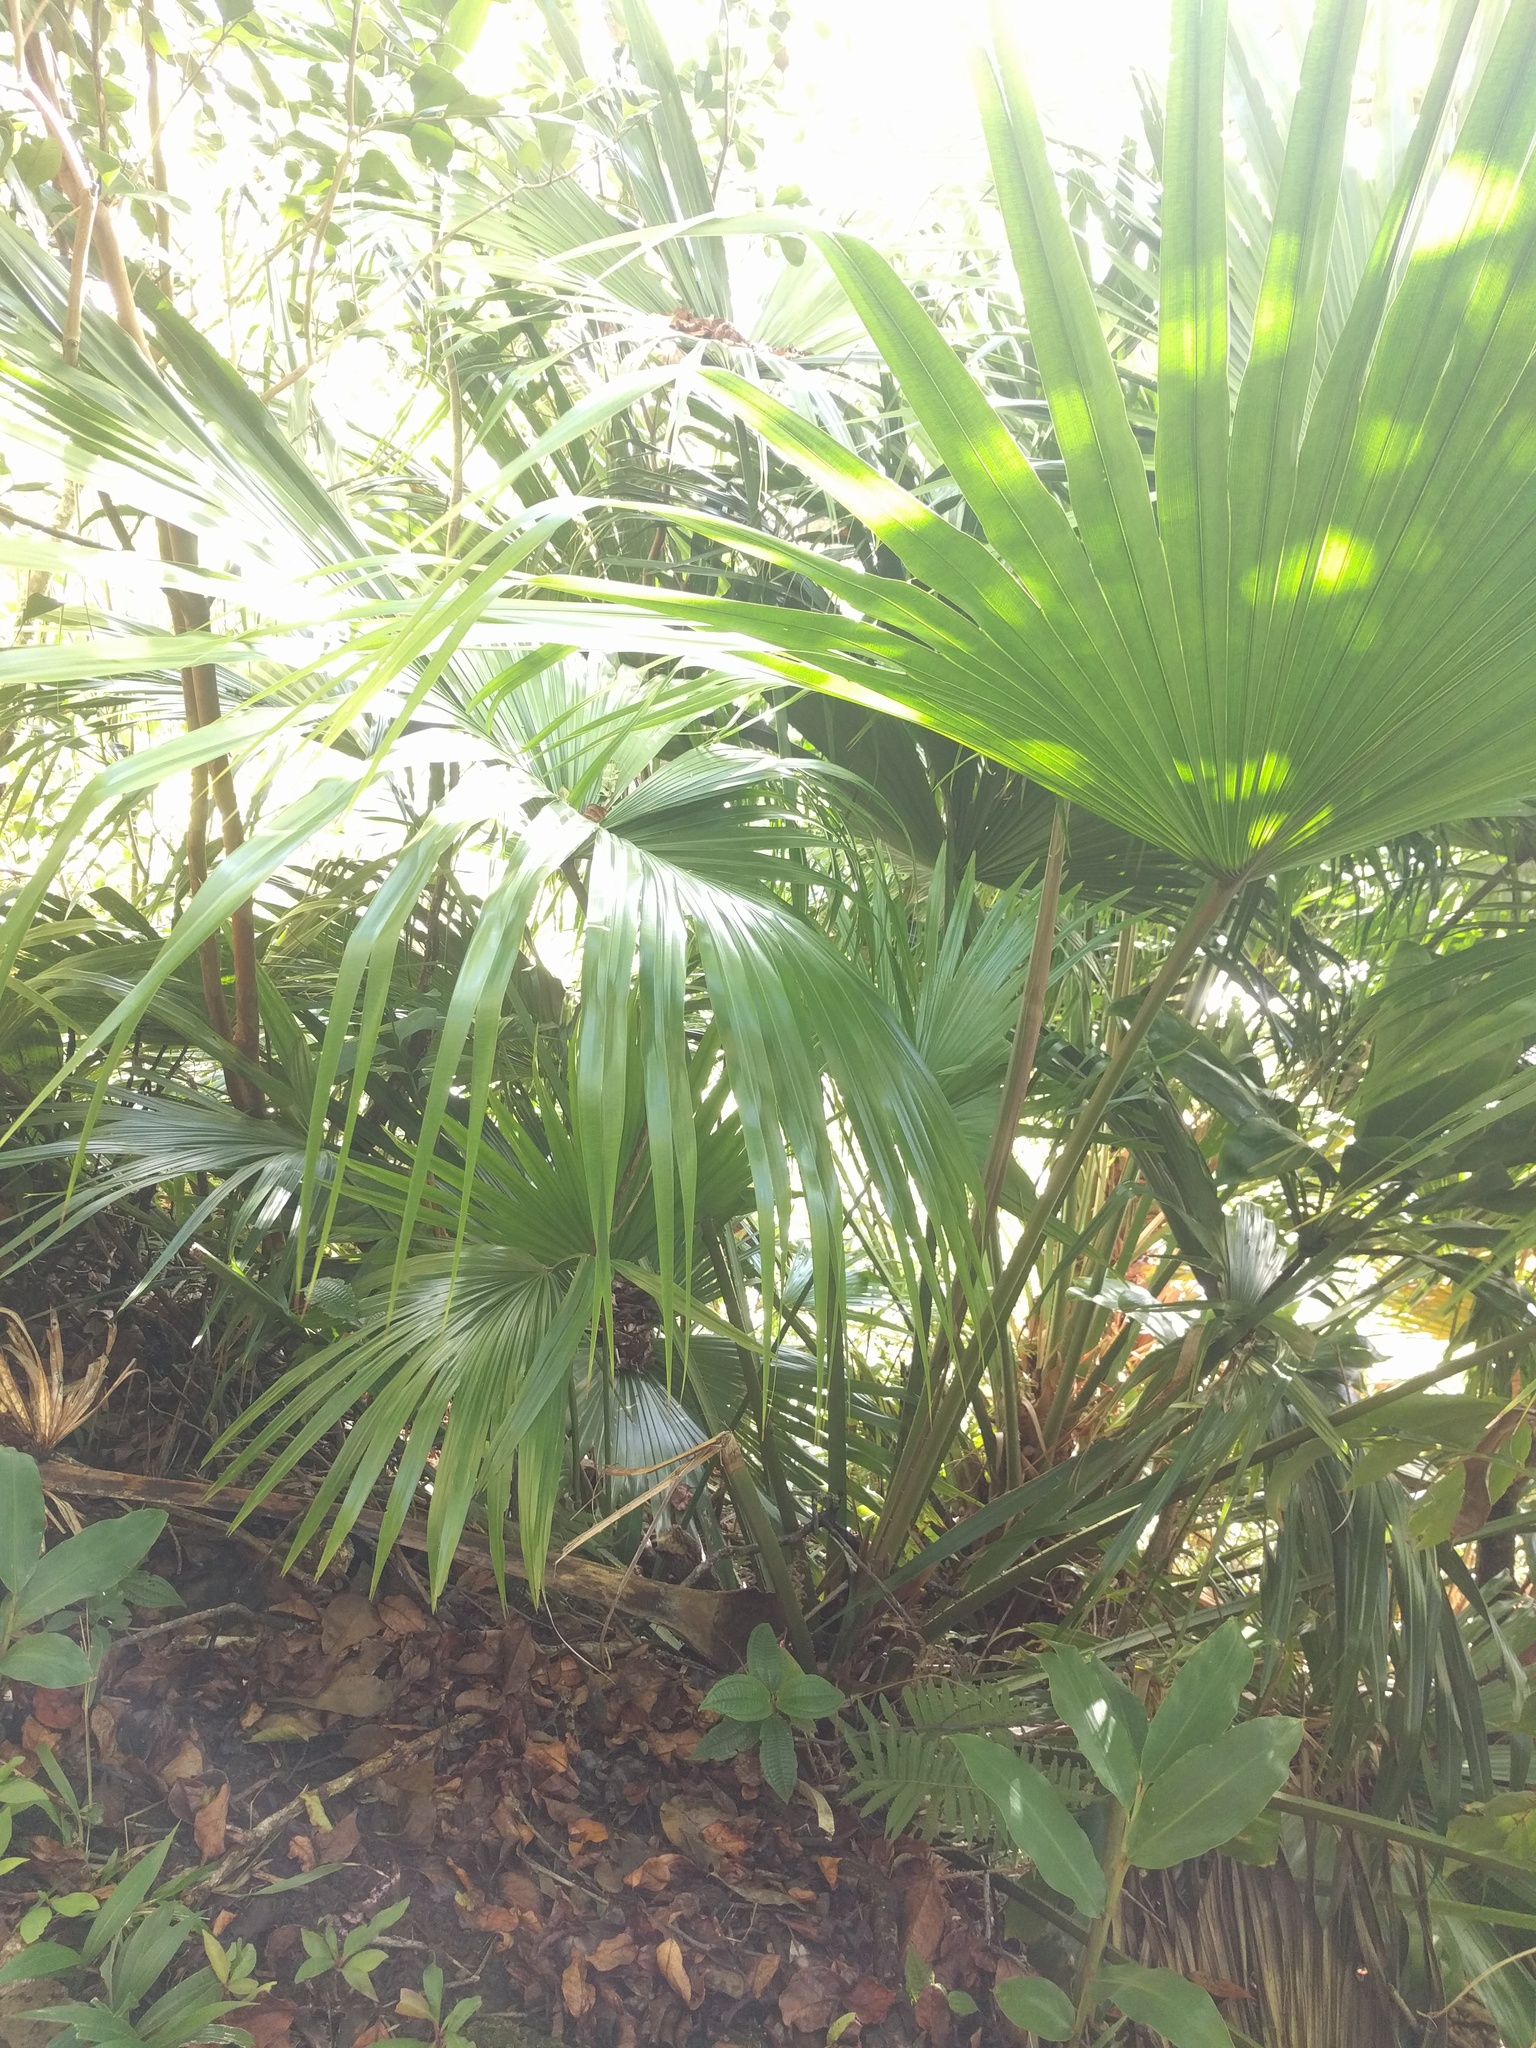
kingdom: Plantae
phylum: Tracheophyta
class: Liliopsida
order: Arecales
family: Arecaceae
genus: Livistona
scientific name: Livistona chinensis
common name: Fountain palm
